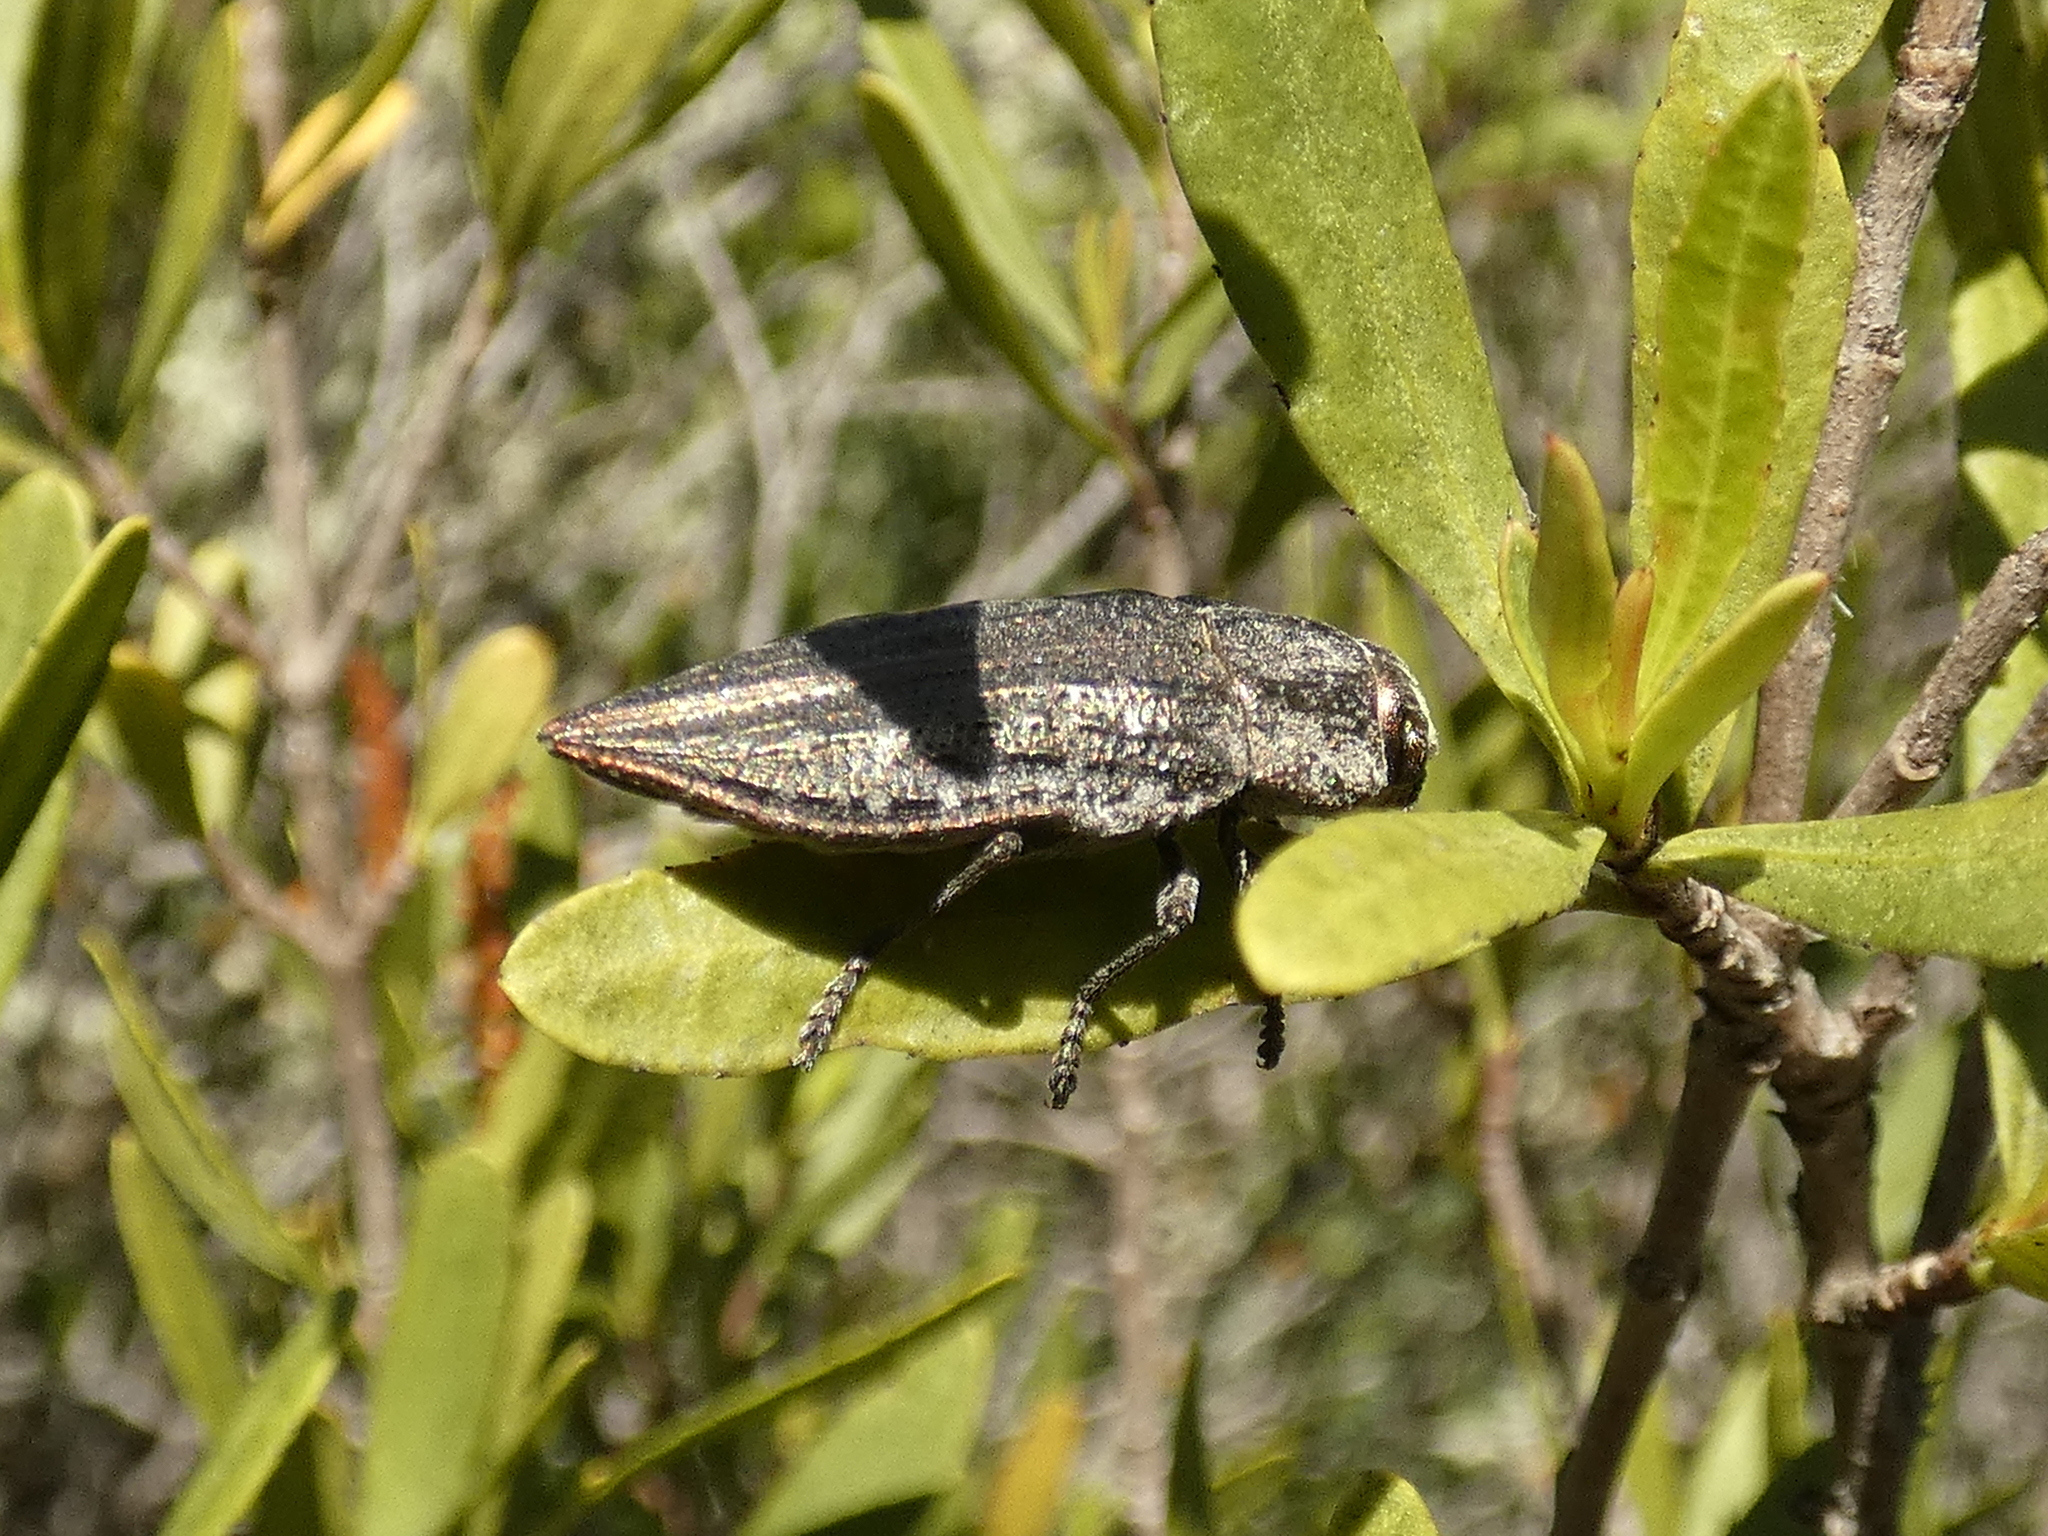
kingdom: Animalia
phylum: Arthropoda
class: Insecta
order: Coleoptera
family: Buprestidae
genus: Ectinogonia
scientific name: Ectinogonia buquetii
